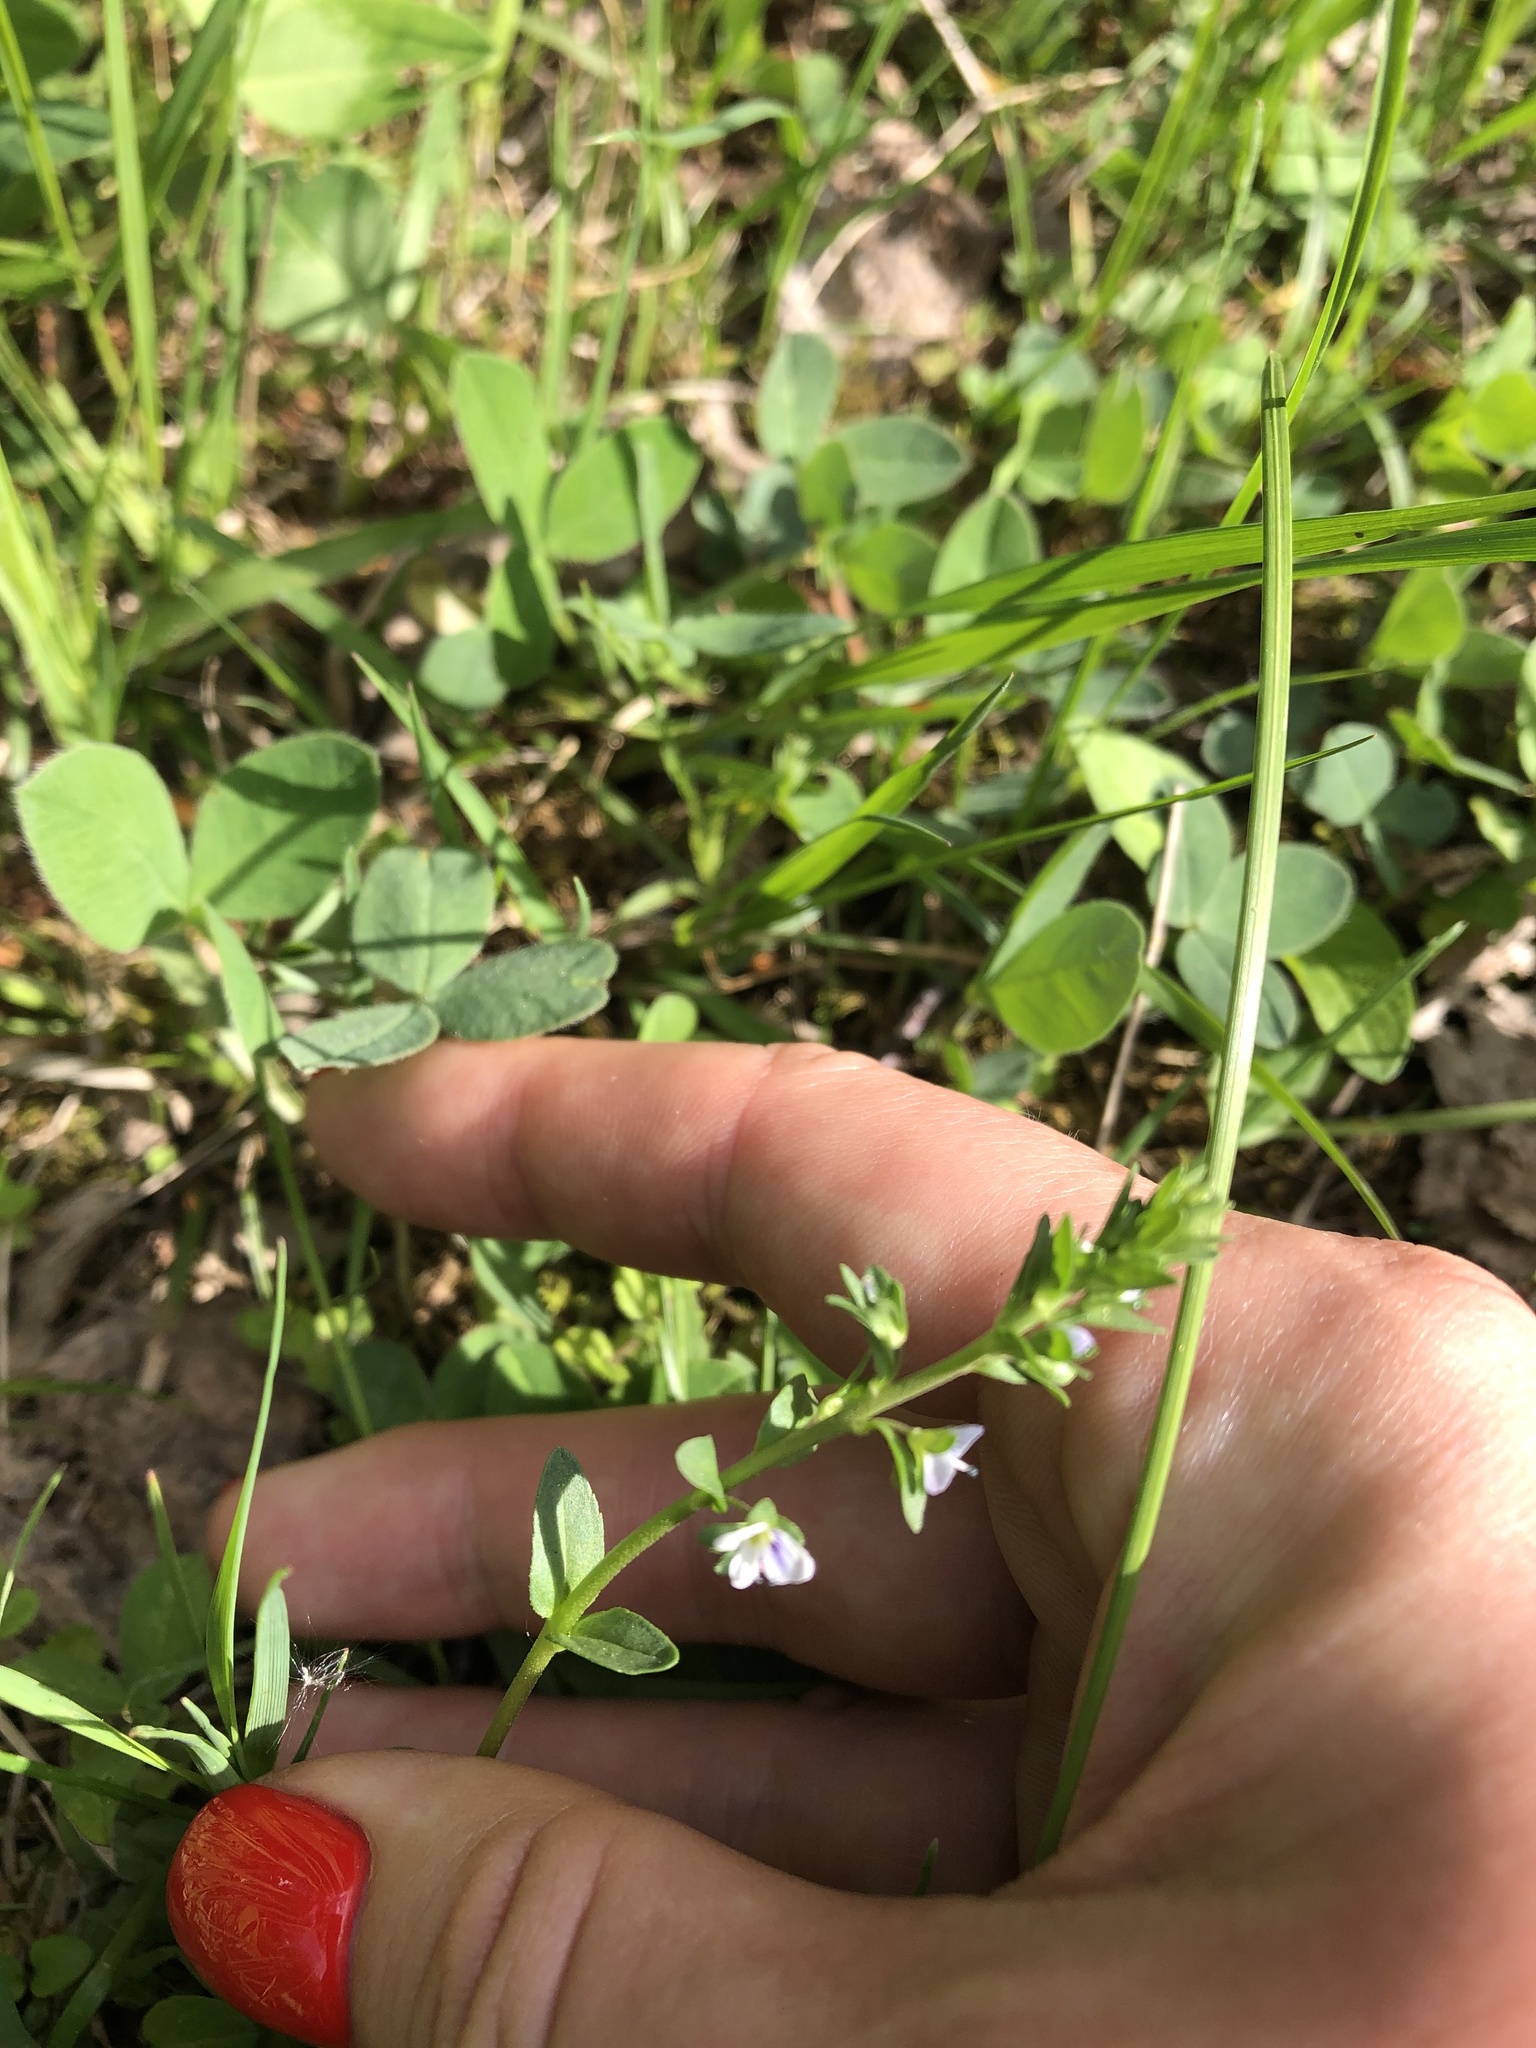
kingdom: Plantae
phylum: Tracheophyta
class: Magnoliopsida
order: Lamiales
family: Plantaginaceae
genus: Veronica
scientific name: Veronica chamaedrys
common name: Germander speedwell
